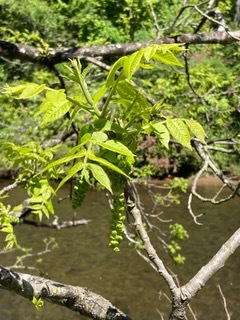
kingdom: Plantae
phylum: Tracheophyta
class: Magnoliopsida
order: Fagales
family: Juglandaceae
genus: Juglans
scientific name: Juglans nigra
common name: Black walnut
